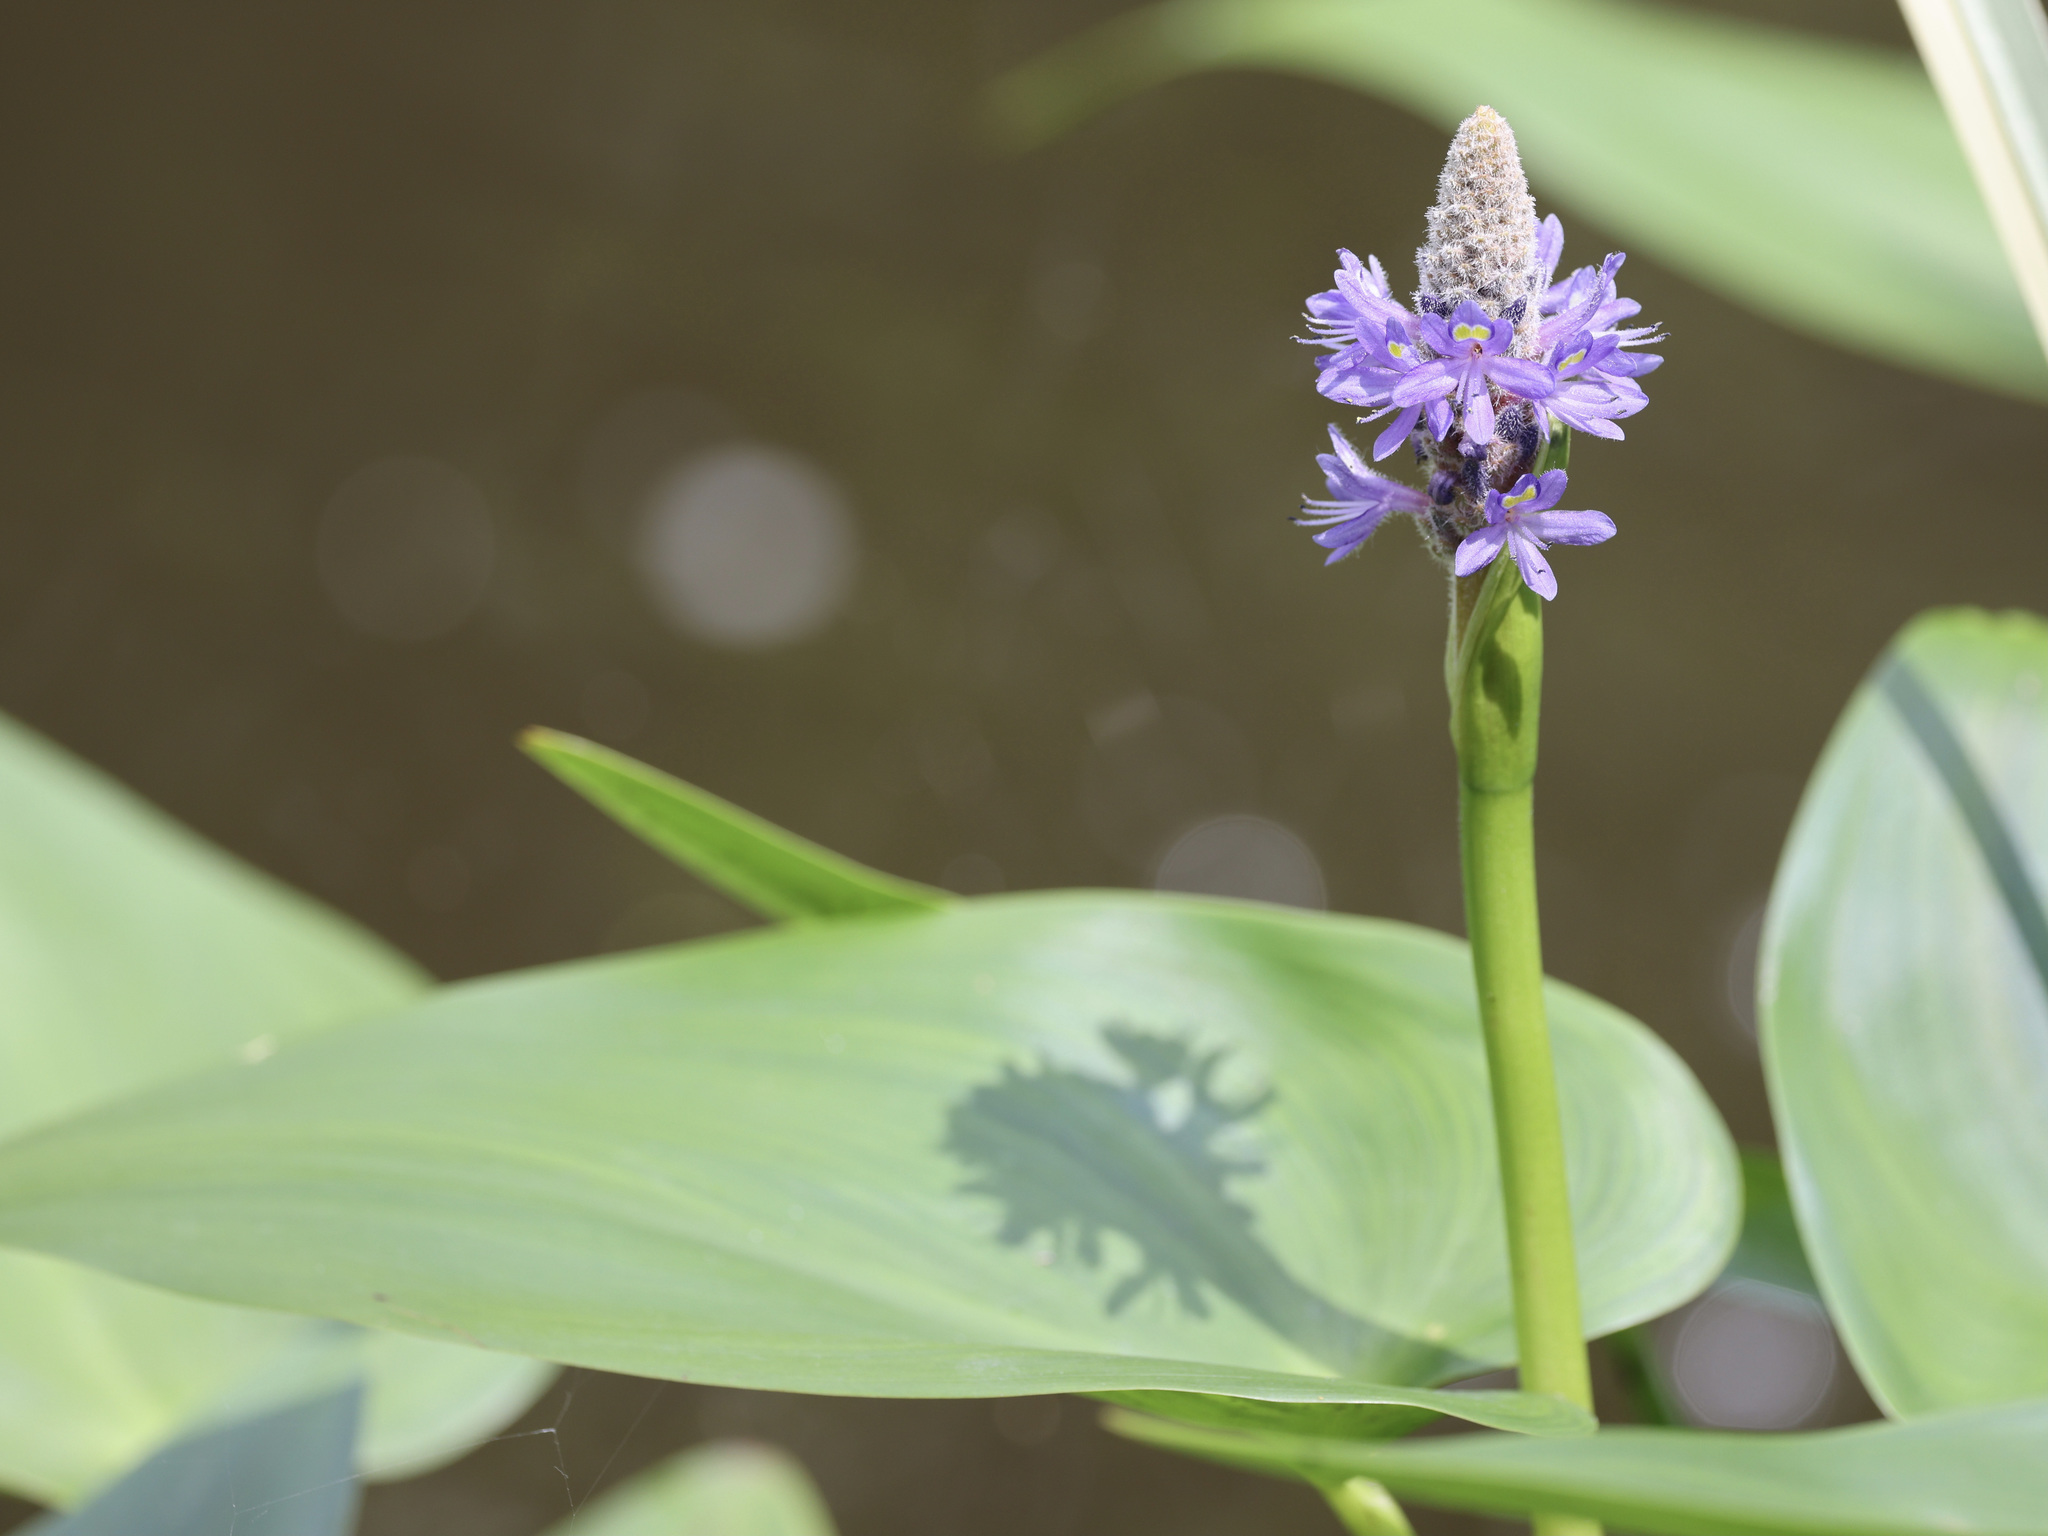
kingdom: Plantae
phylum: Tracheophyta
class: Liliopsida
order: Commelinales
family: Pontederiaceae
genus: Pontederia
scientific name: Pontederia cordata
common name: Pickerelweed
